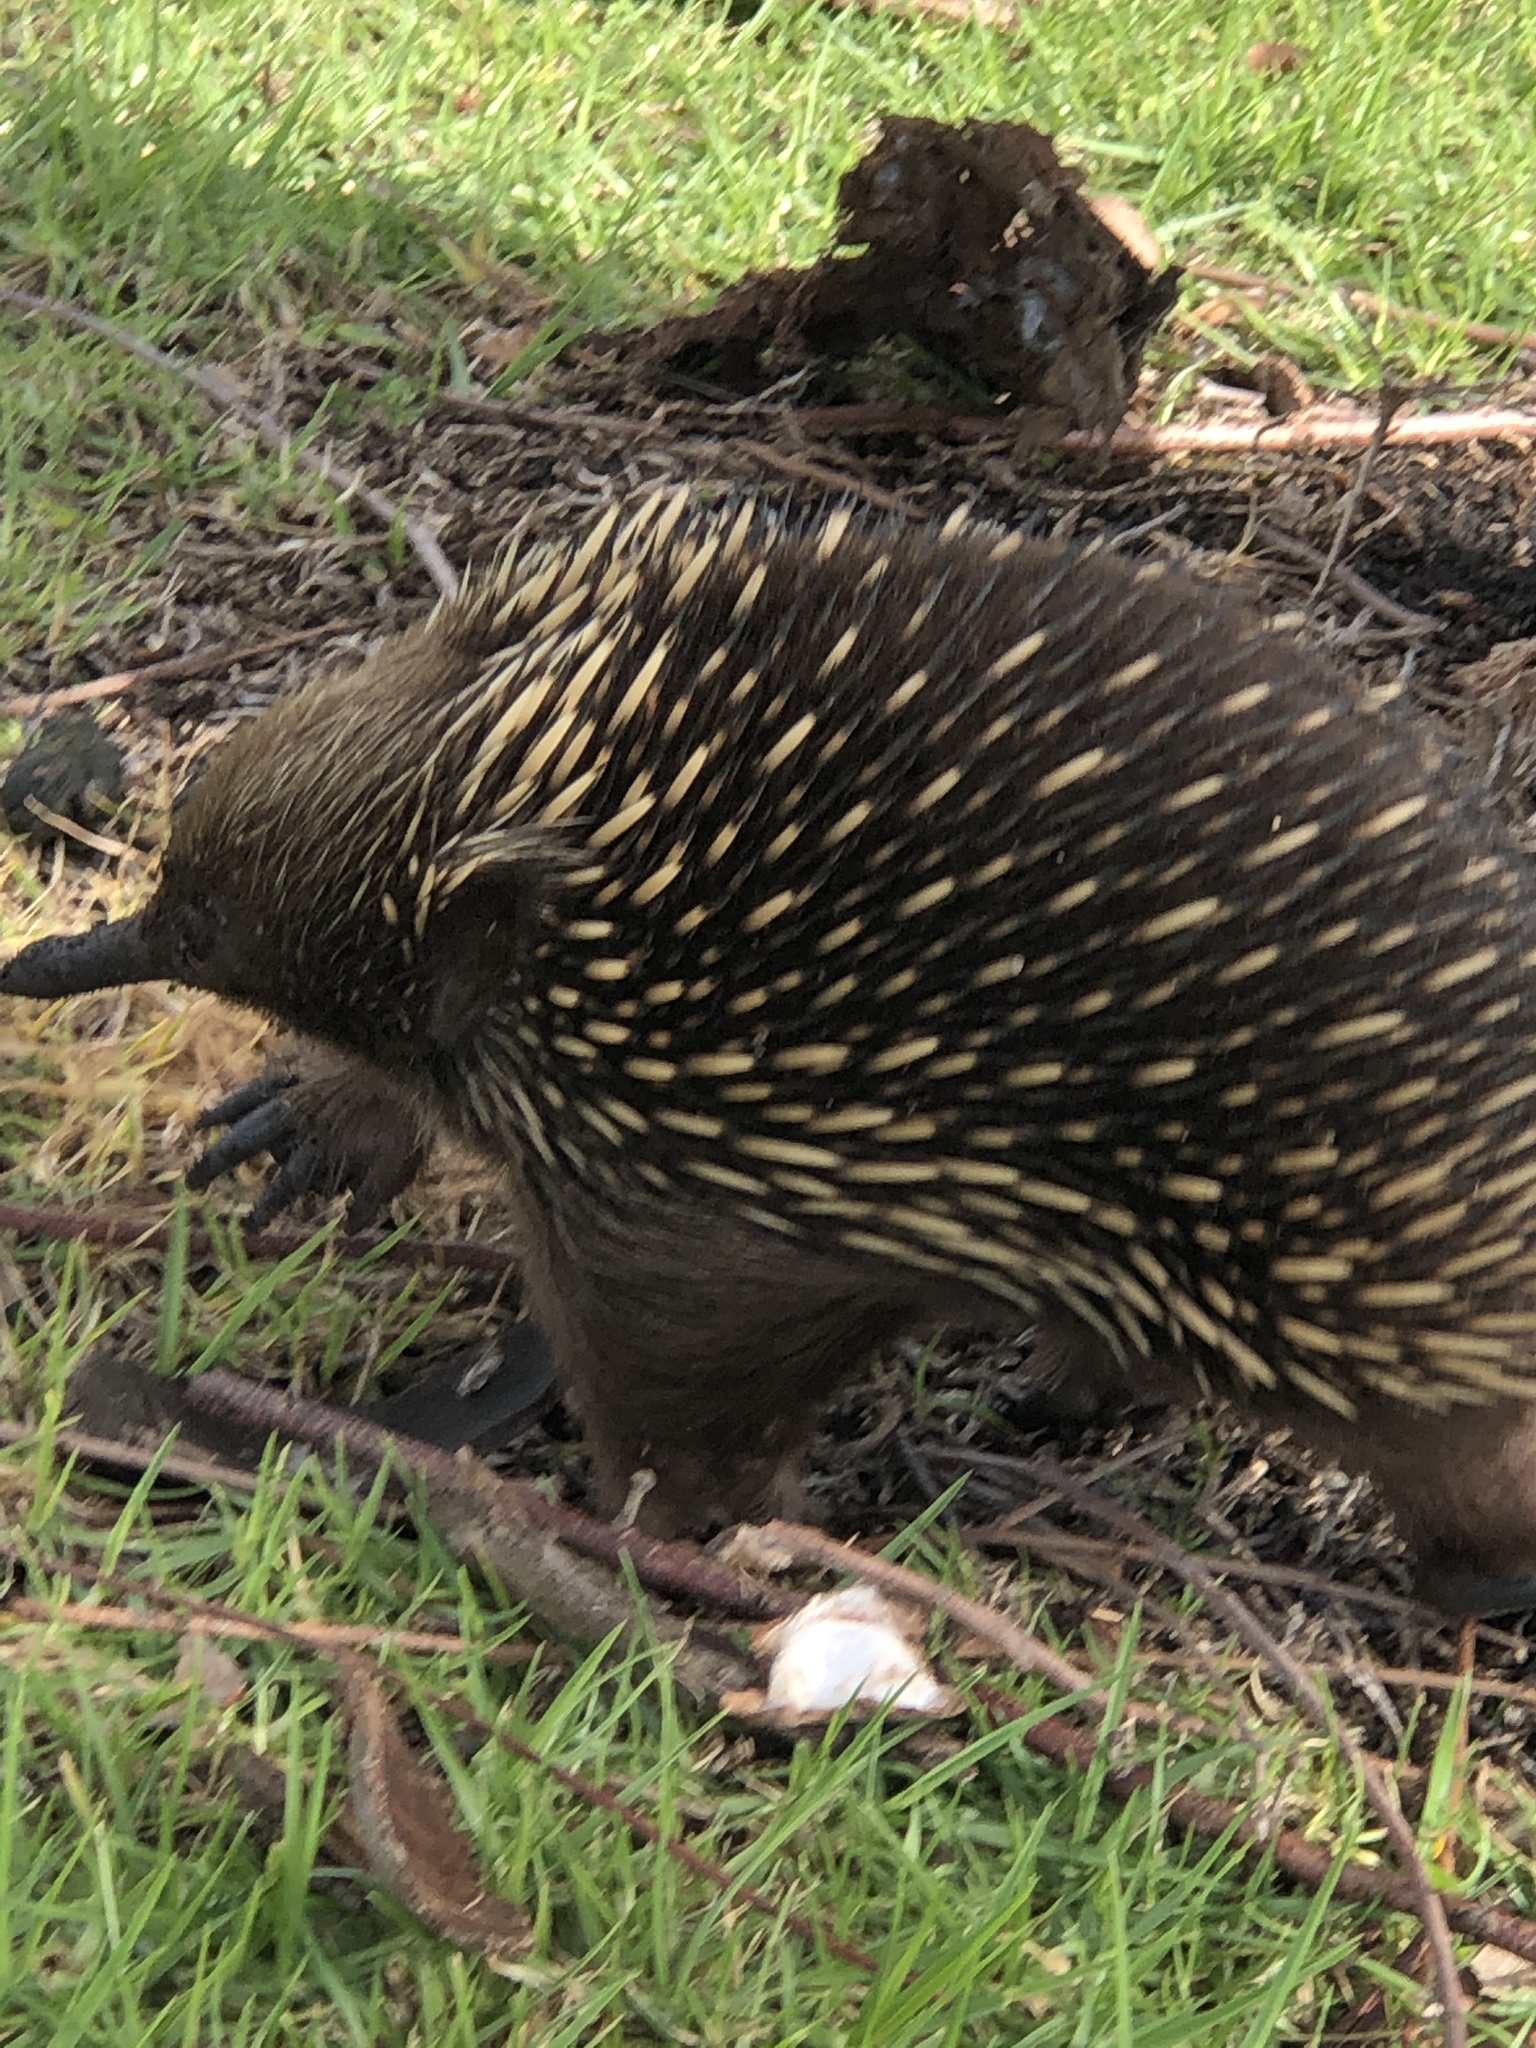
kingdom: Animalia
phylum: Chordata
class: Mammalia
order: Monotremata
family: Tachyglossidae
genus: Tachyglossus
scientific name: Tachyglossus aculeatus
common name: Short-beaked echidna
